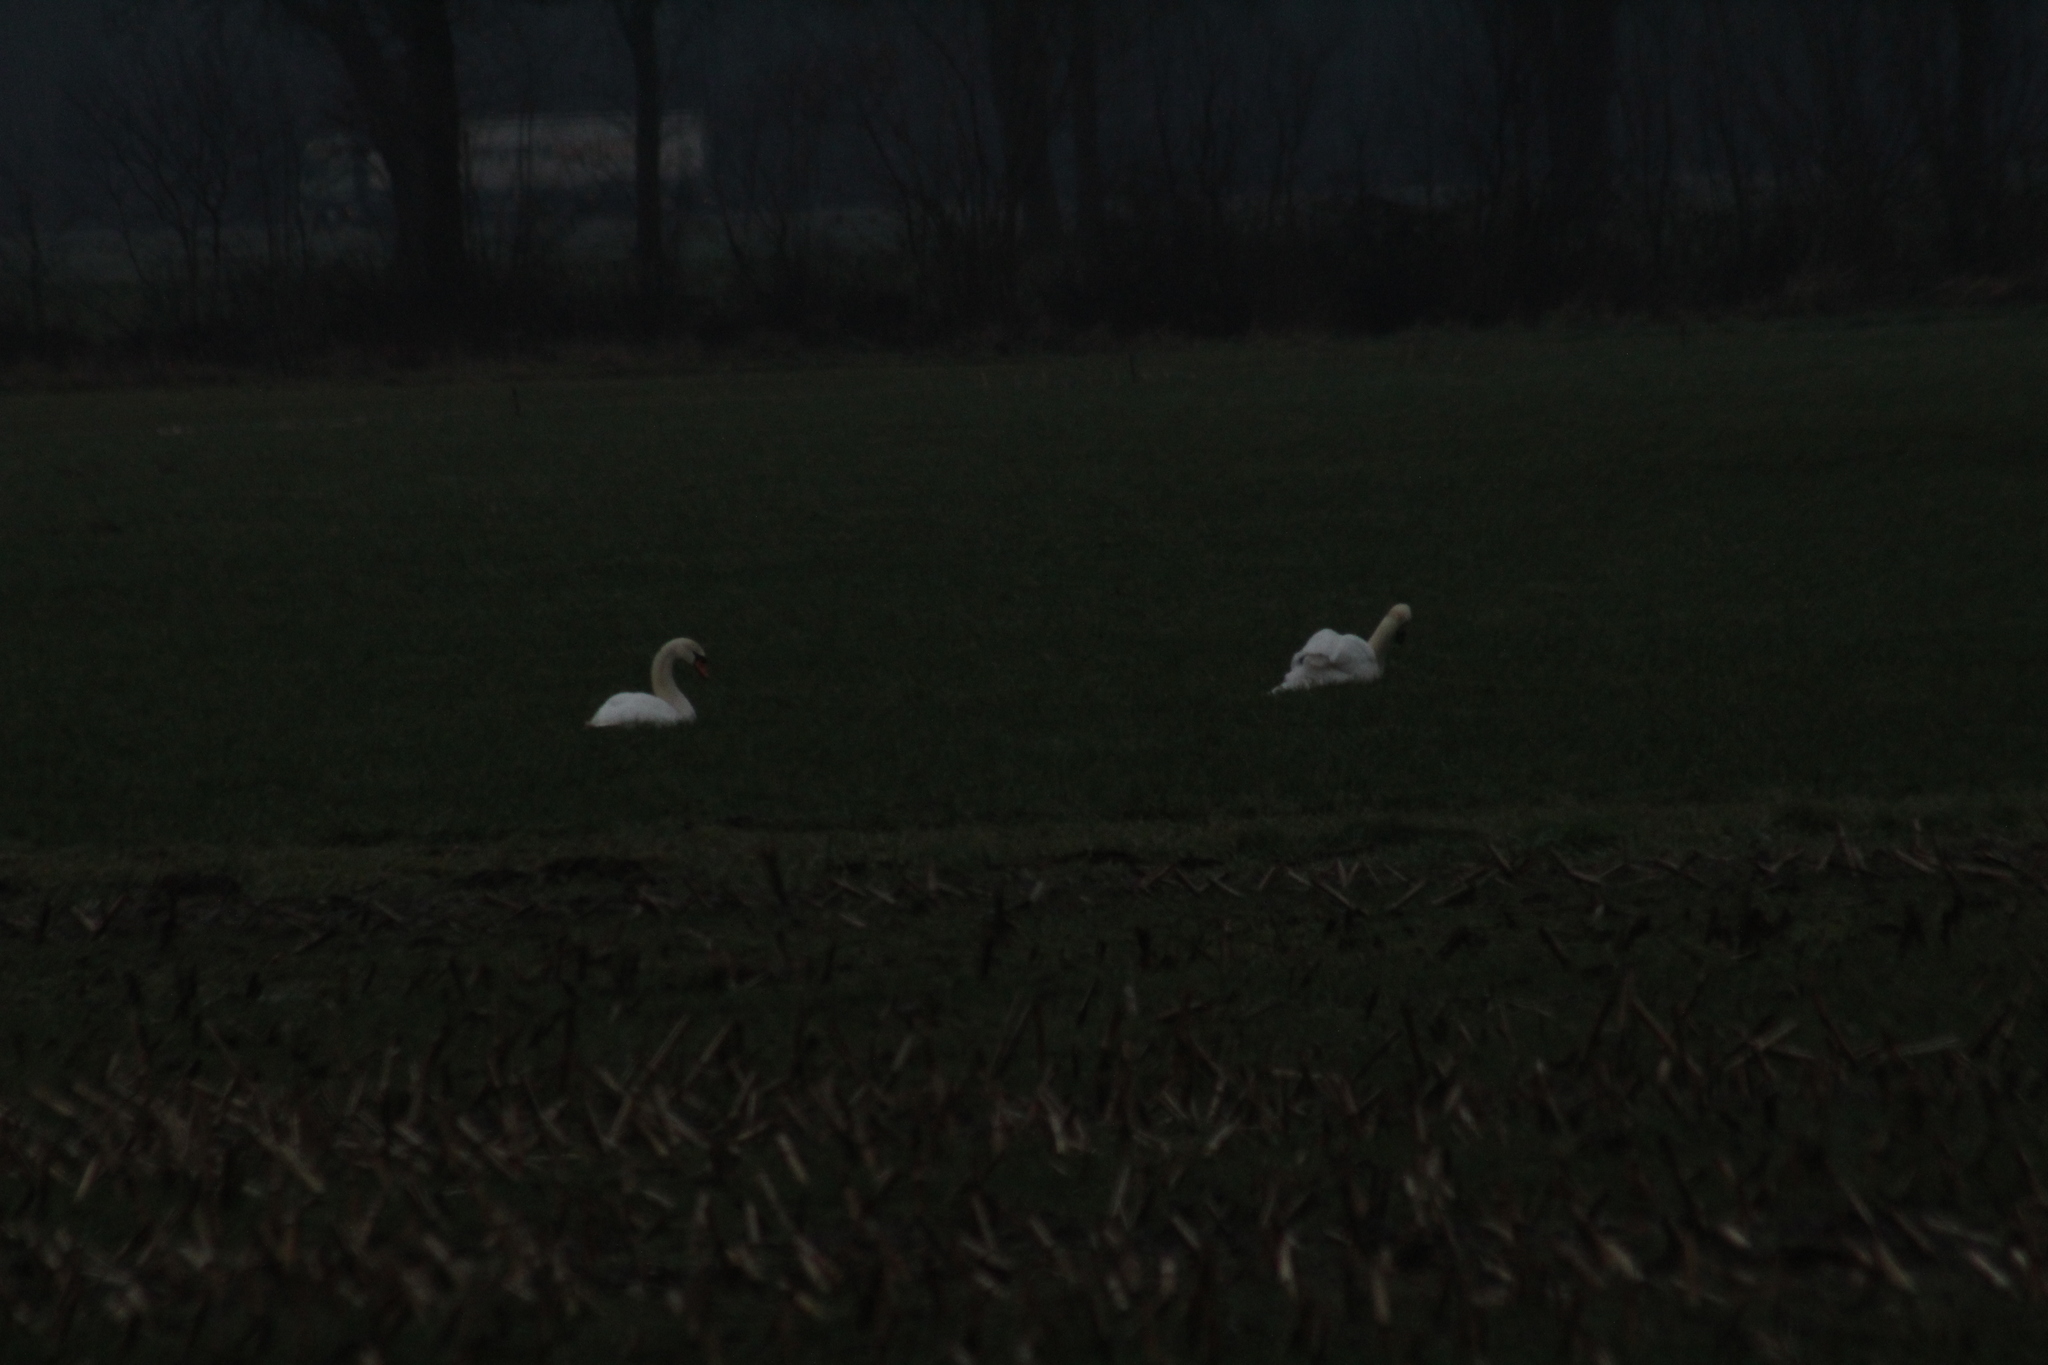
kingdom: Animalia
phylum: Chordata
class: Aves
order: Anseriformes
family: Anatidae
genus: Cygnus
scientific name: Cygnus olor
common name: Mute swan
